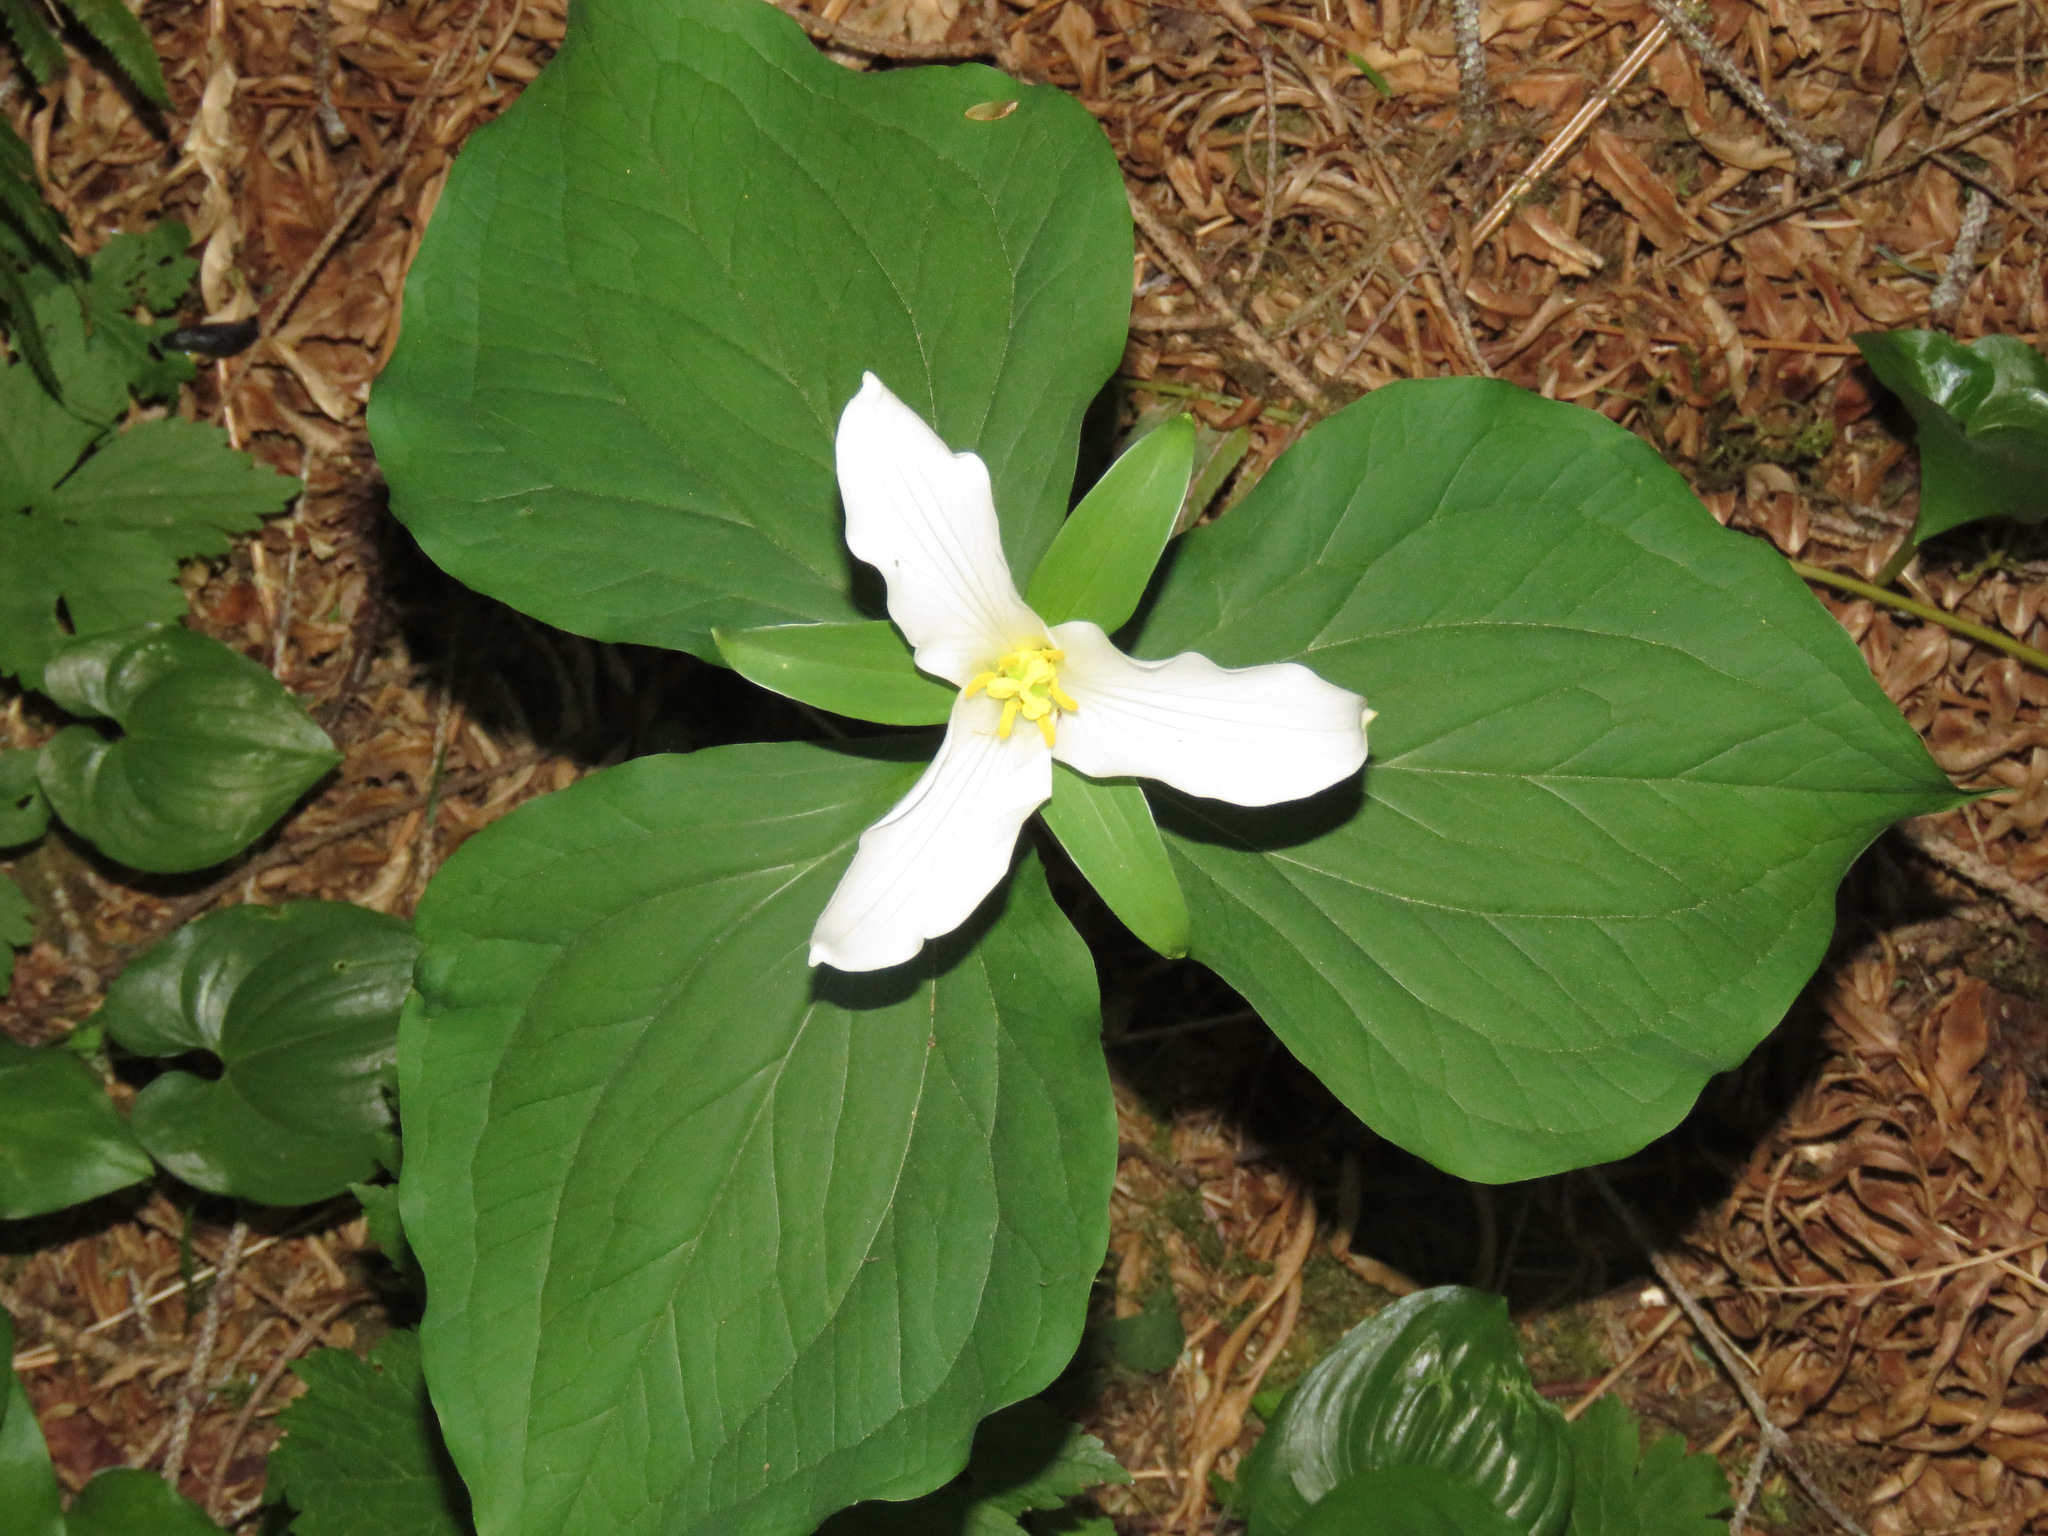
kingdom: Plantae
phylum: Tracheophyta
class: Liliopsida
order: Liliales
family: Melanthiaceae
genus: Trillium
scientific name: Trillium ovatum
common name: Pacific trillium
